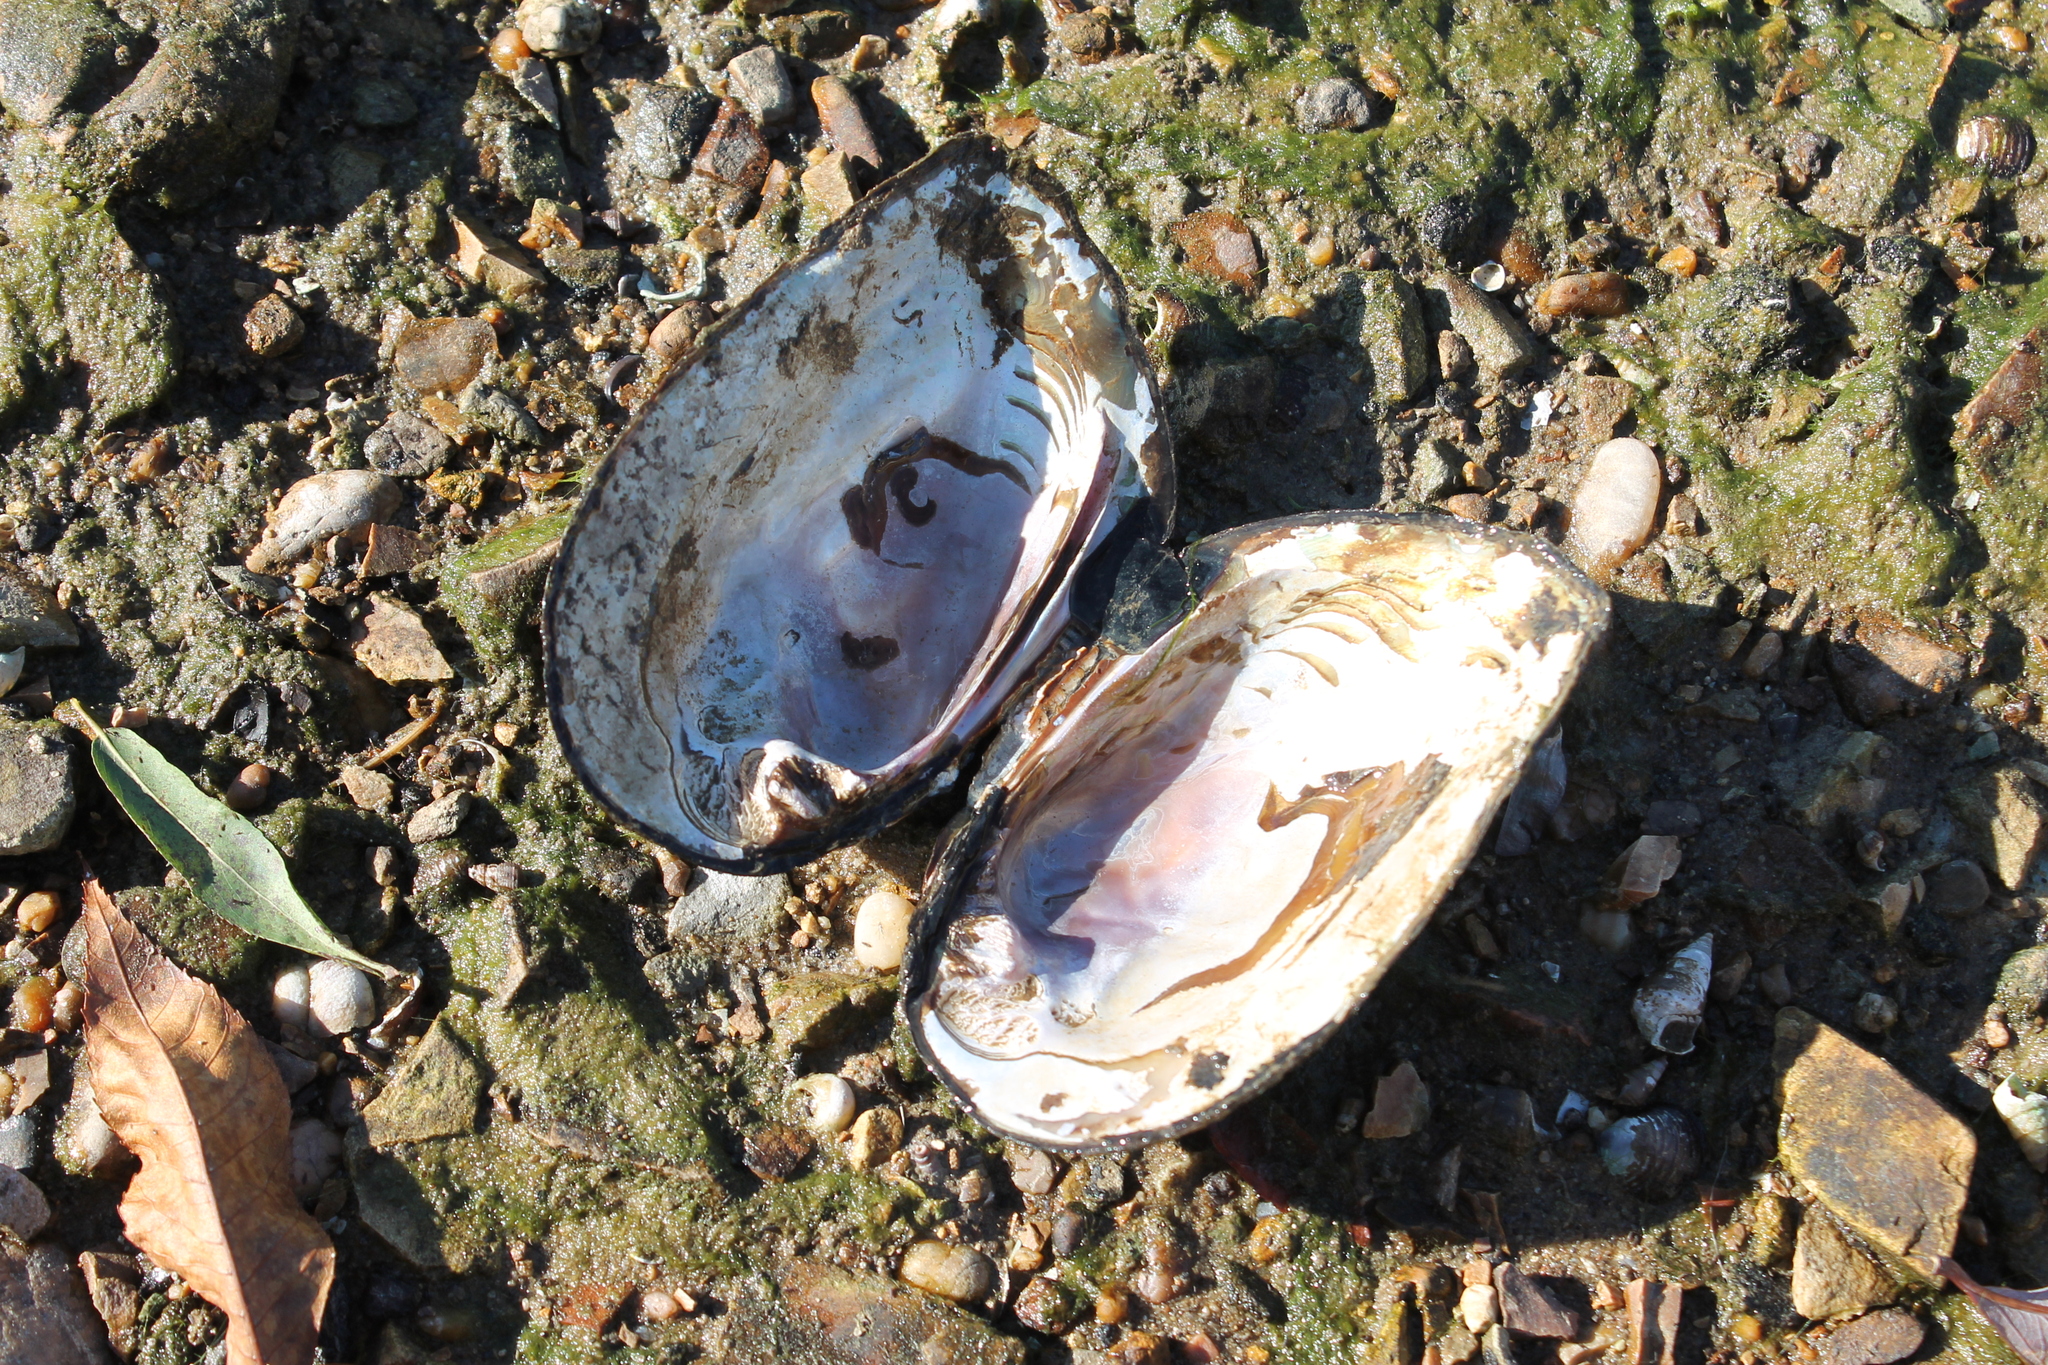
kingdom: Animalia
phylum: Mollusca
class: Bivalvia
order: Unionida
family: Unionidae
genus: Plectomerus
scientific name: Plectomerus dombeyanus
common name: Bankclimber
